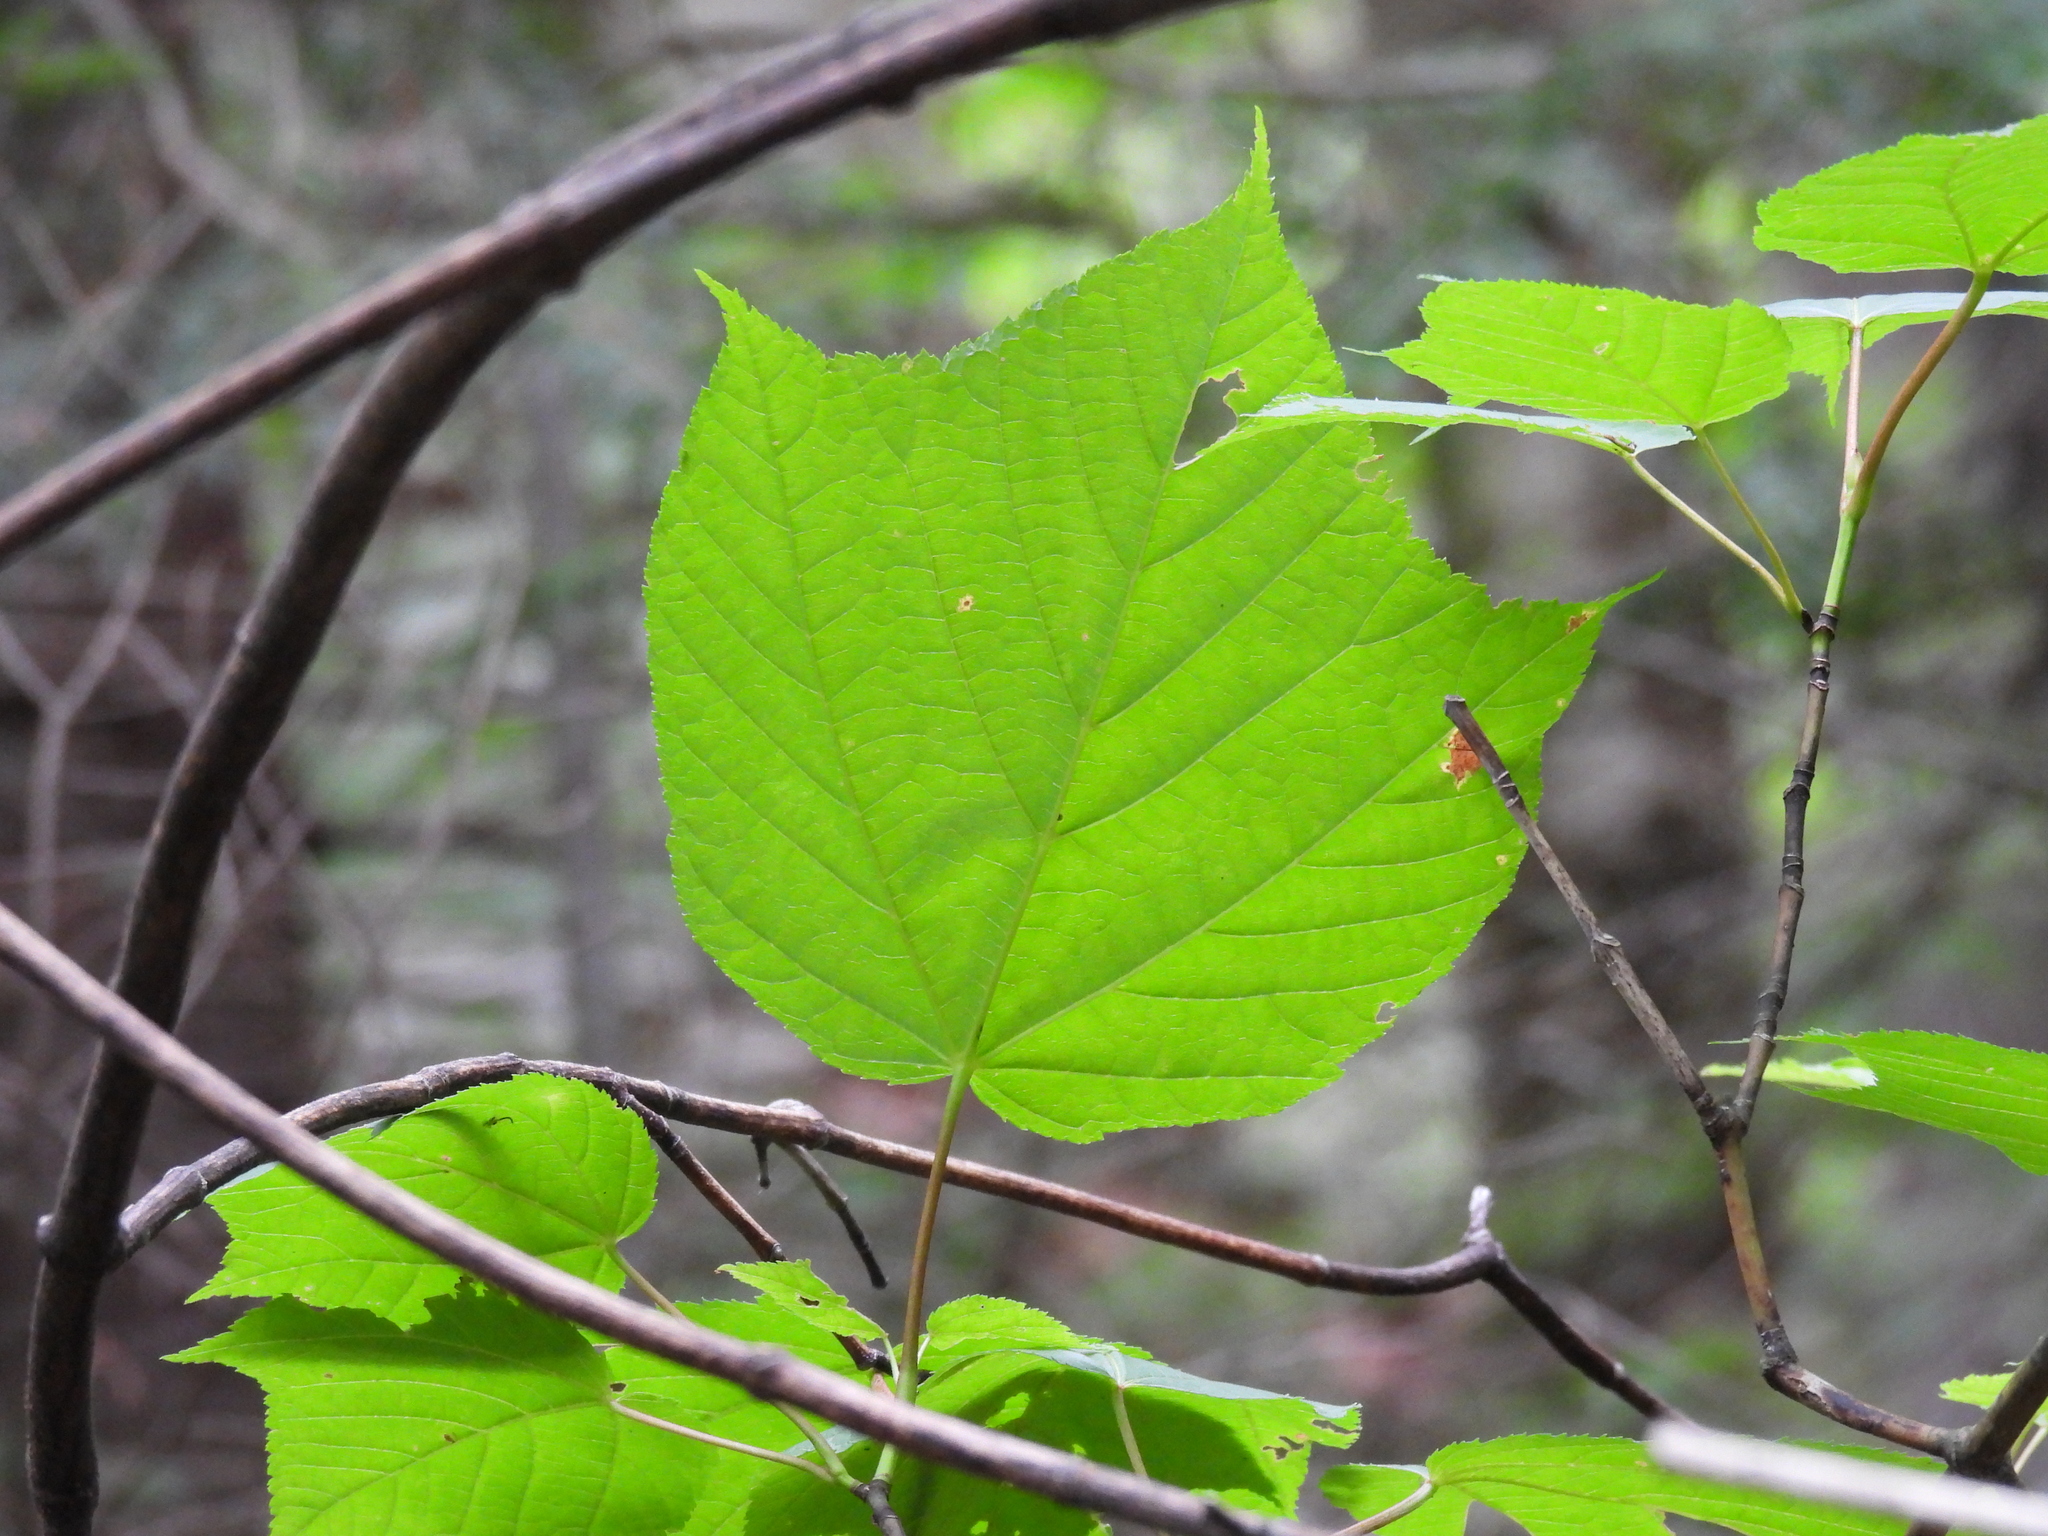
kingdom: Plantae
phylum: Tracheophyta
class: Magnoliopsida
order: Sapindales
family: Sapindaceae
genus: Acer
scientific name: Acer pensylvanicum
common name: Moosewood
